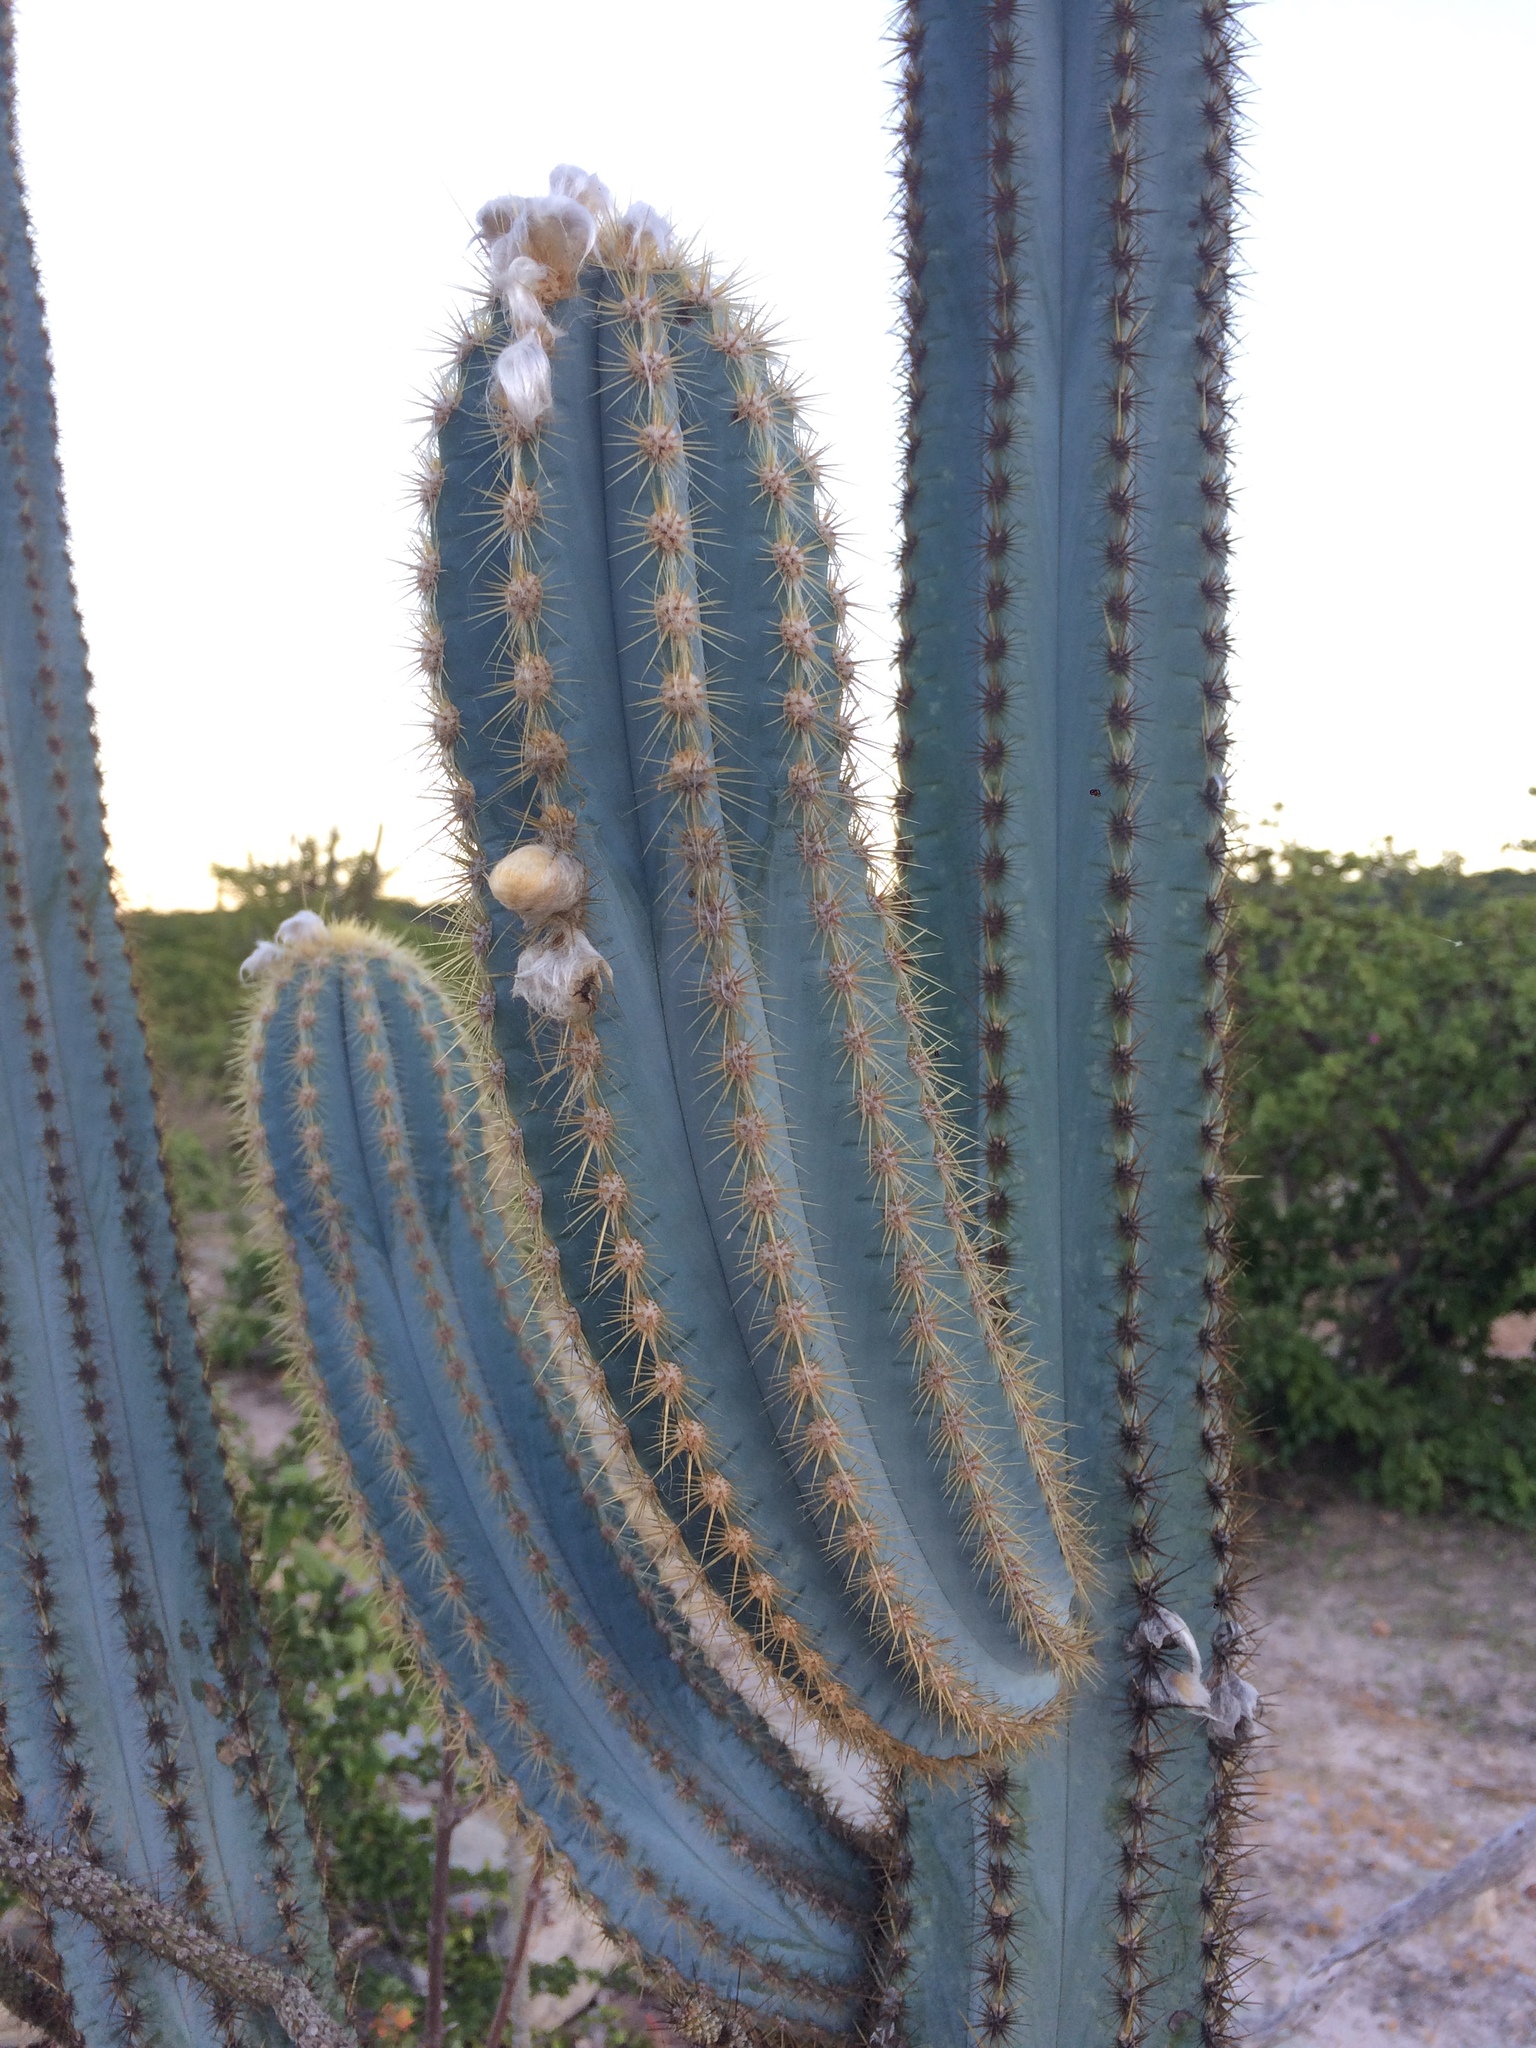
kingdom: Plantae
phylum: Tracheophyta
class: Magnoliopsida
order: Caryophyllales
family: Cactaceae
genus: Pilosocereus
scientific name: Pilosocereus pachycladus
